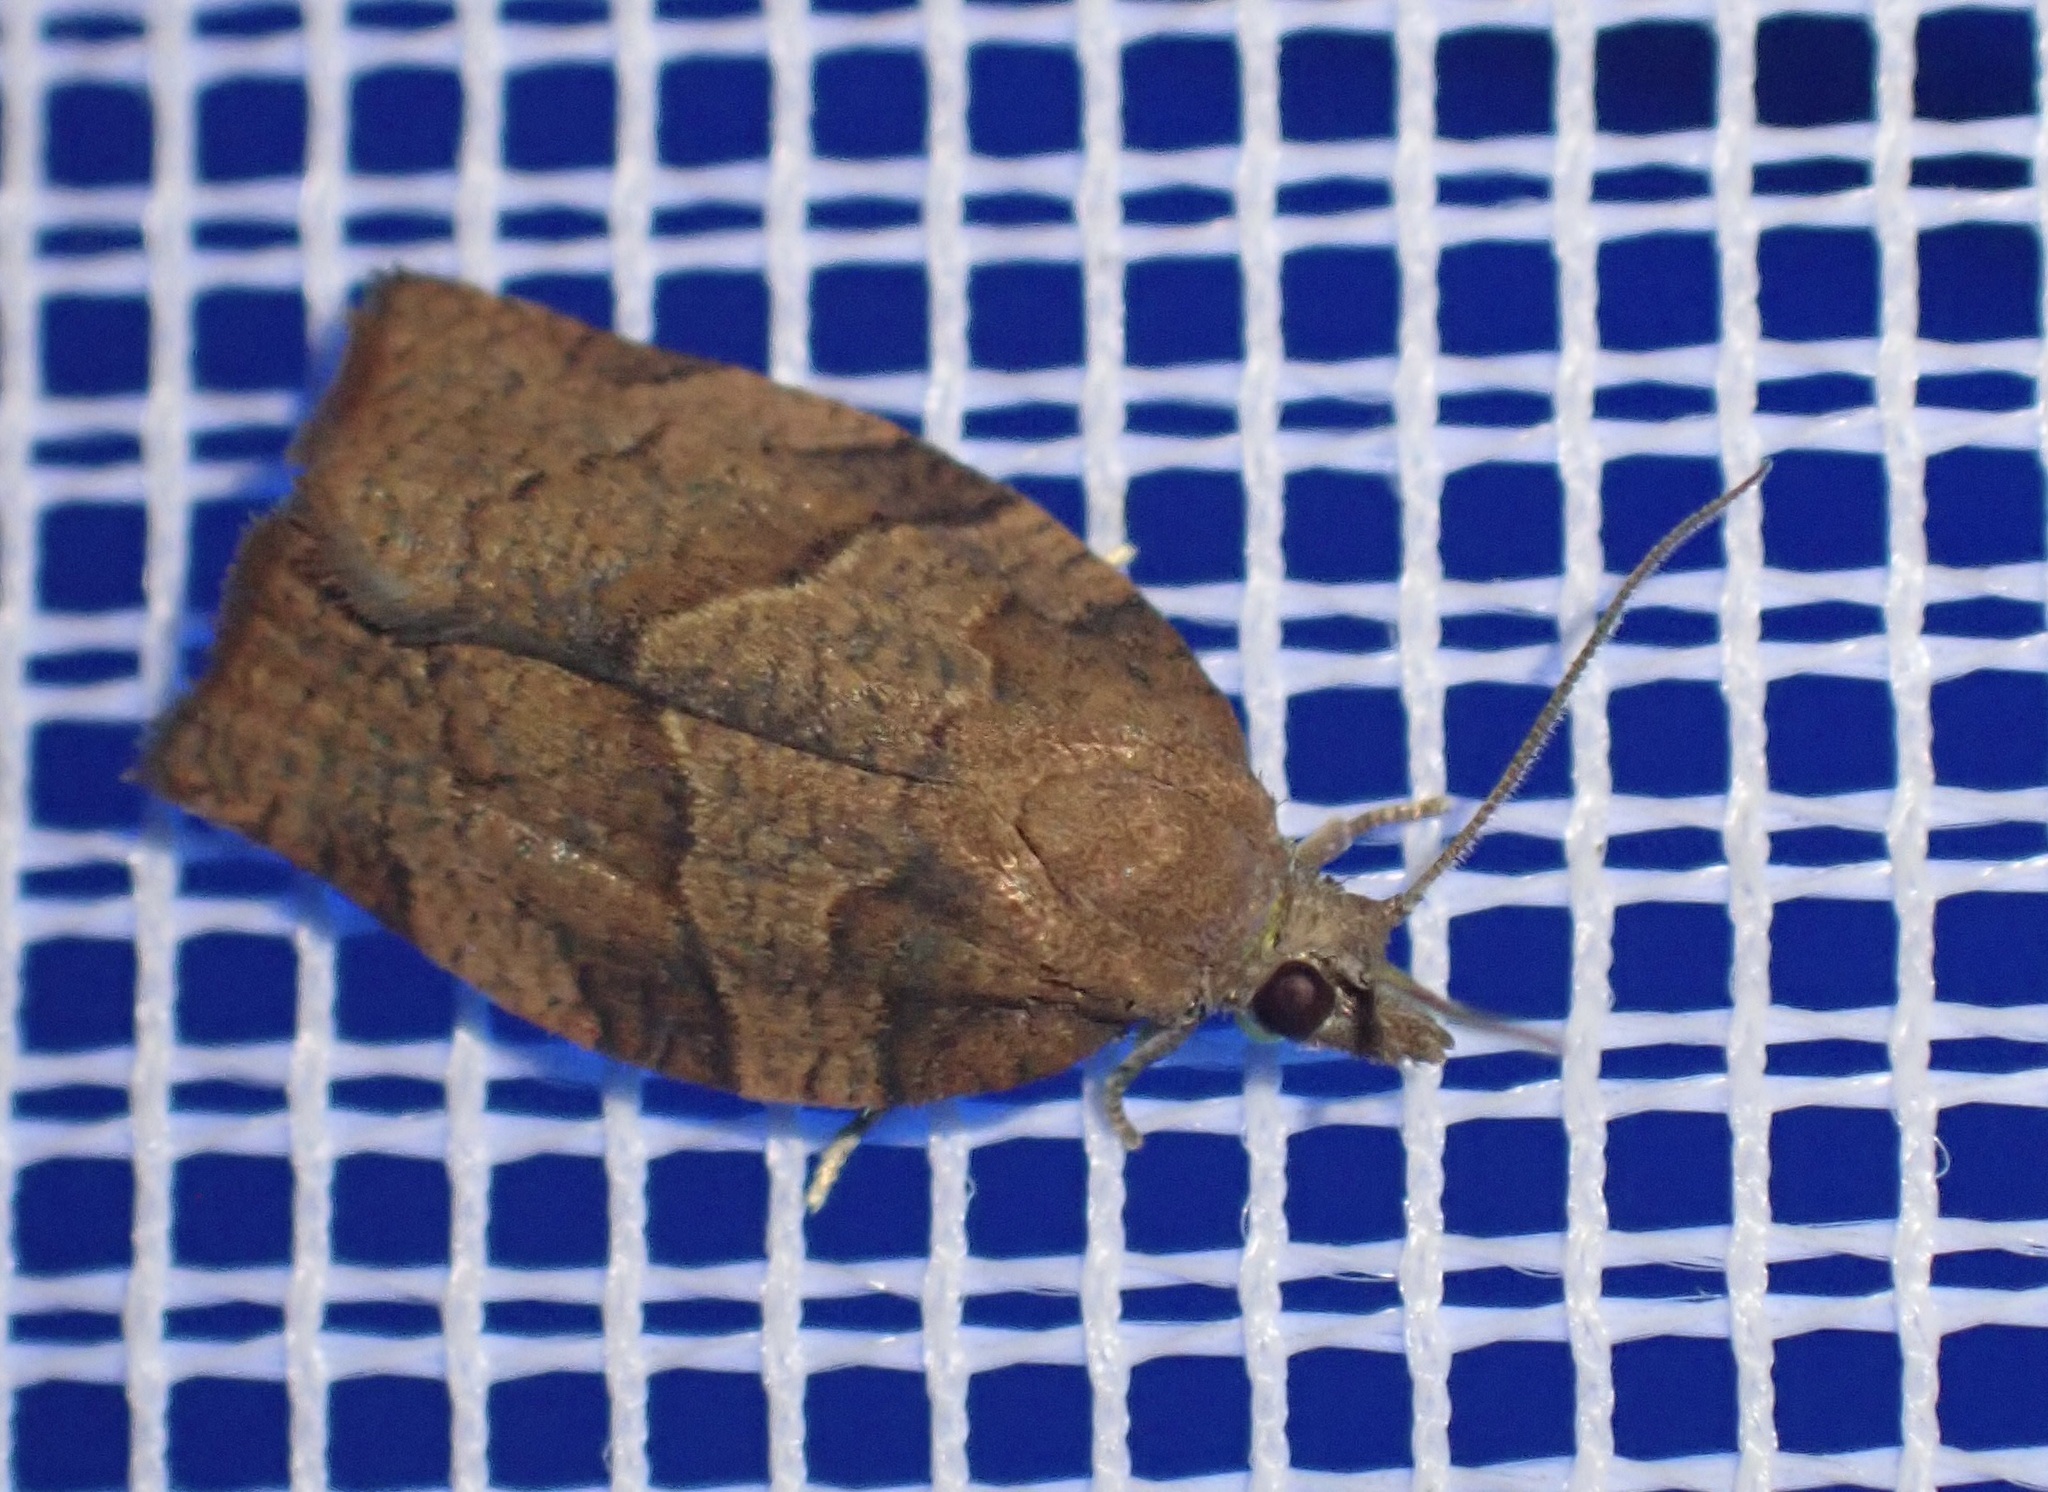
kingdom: Animalia
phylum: Arthropoda
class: Insecta
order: Lepidoptera
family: Tortricidae
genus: Pandemis
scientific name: Pandemis heparana
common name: Dark fruit-tree tortrix
